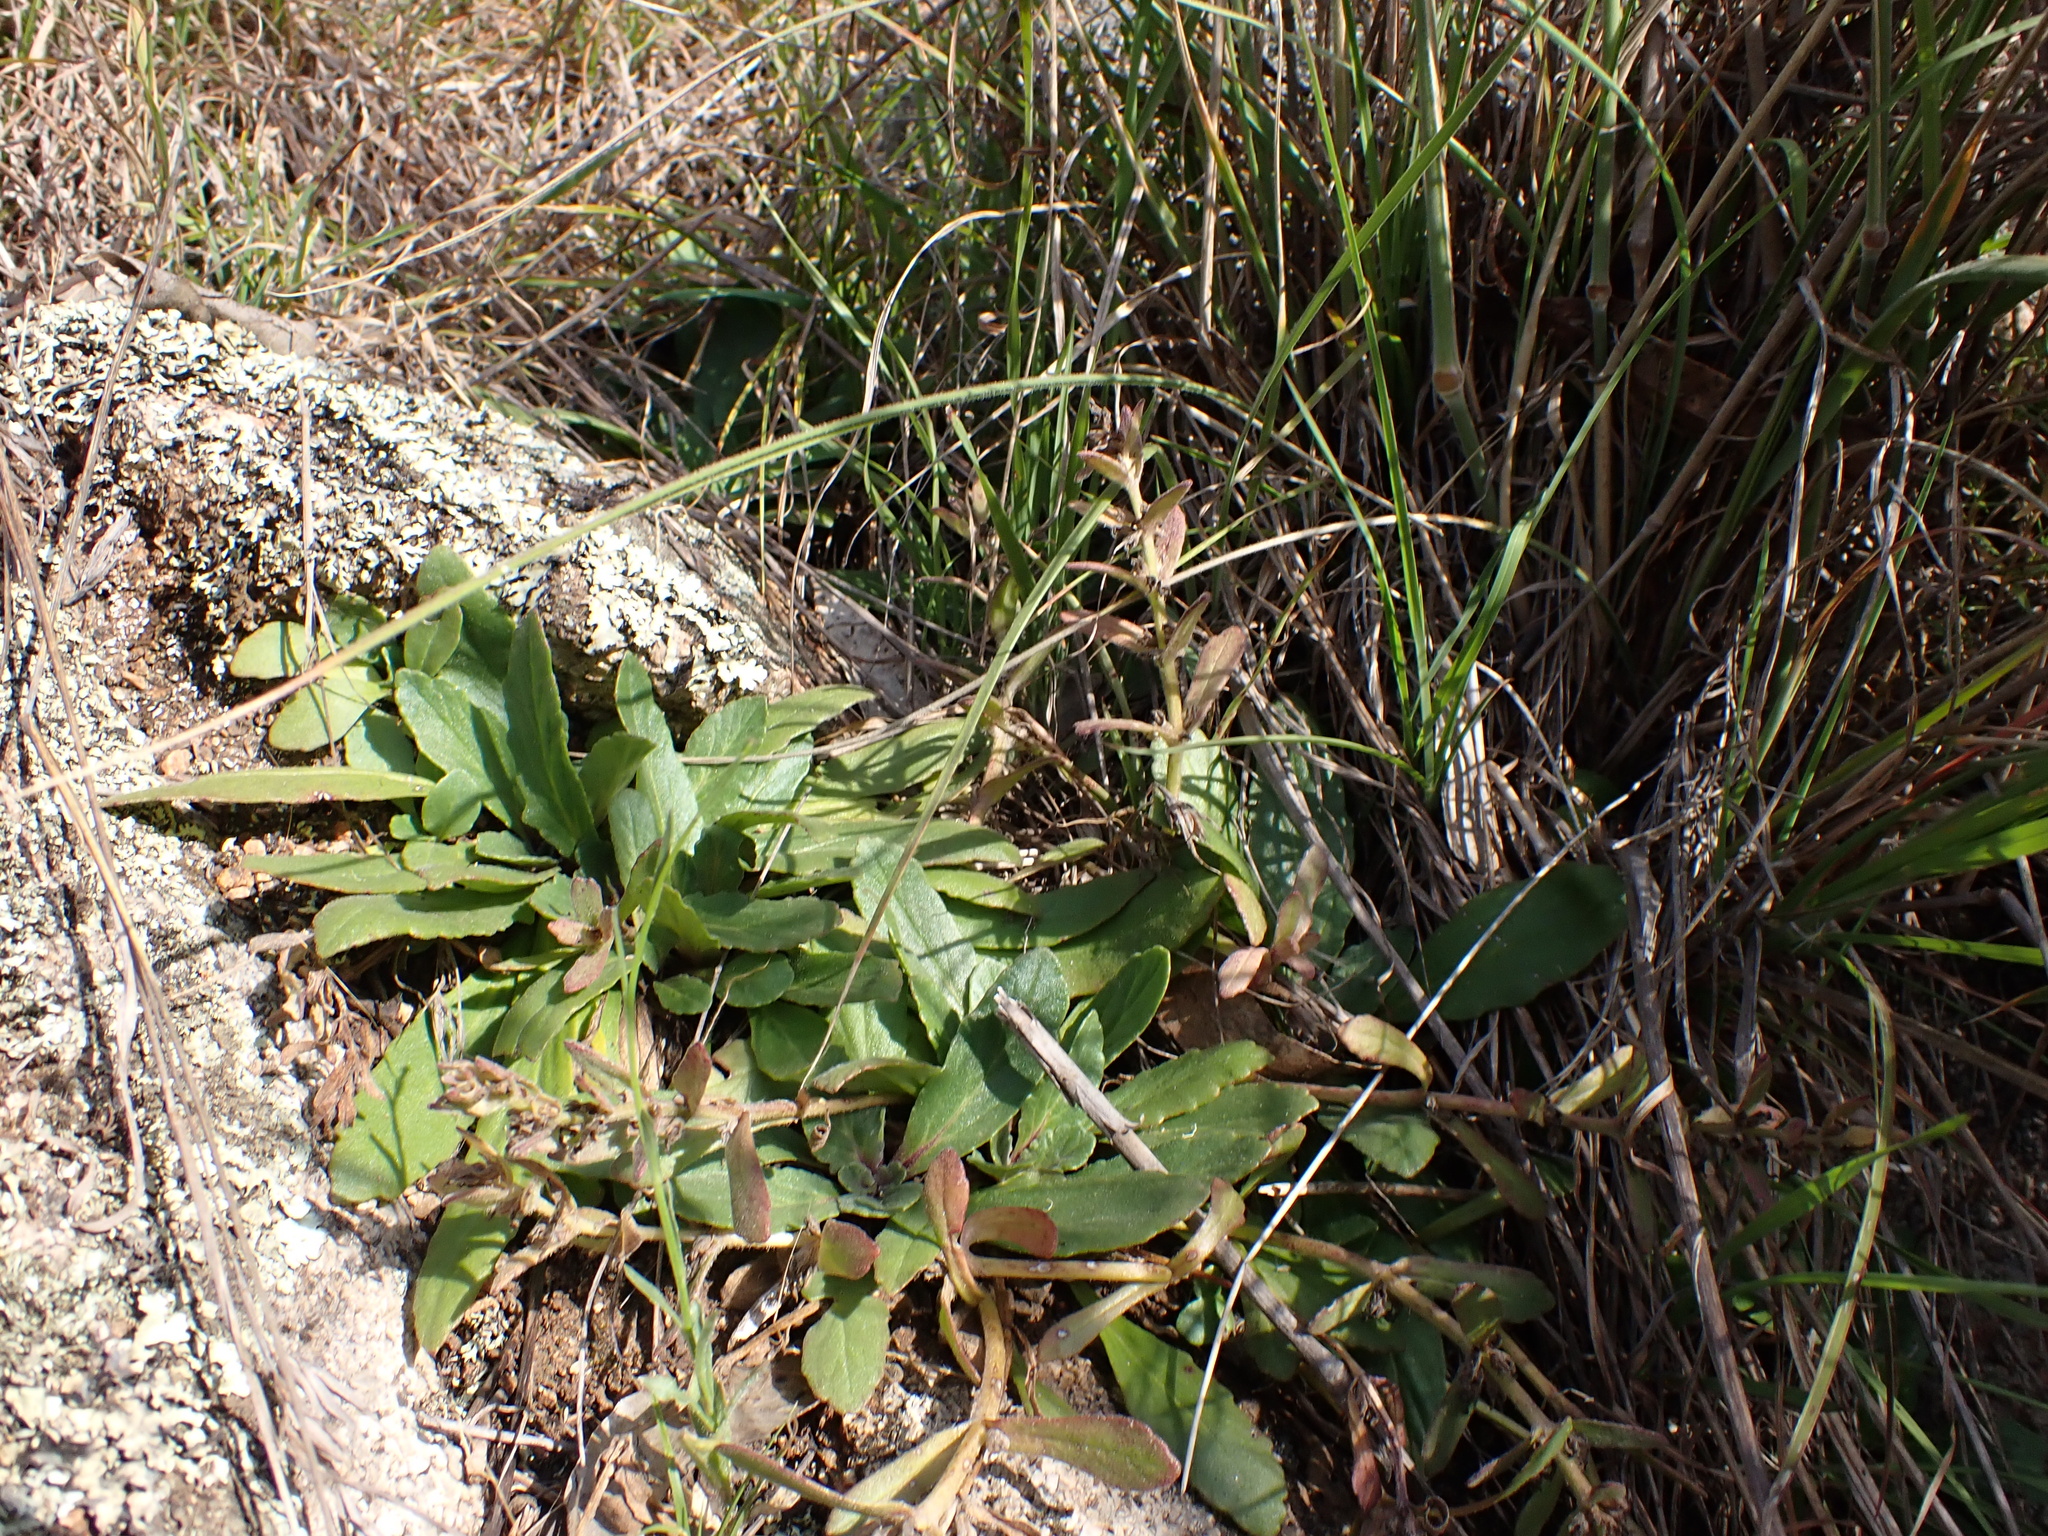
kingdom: Plantae
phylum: Tracheophyta
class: Magnoliopsida
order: Lamiales
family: Lamiaceae
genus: Ajuga
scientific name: Ajuga australis
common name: Australian bugle
